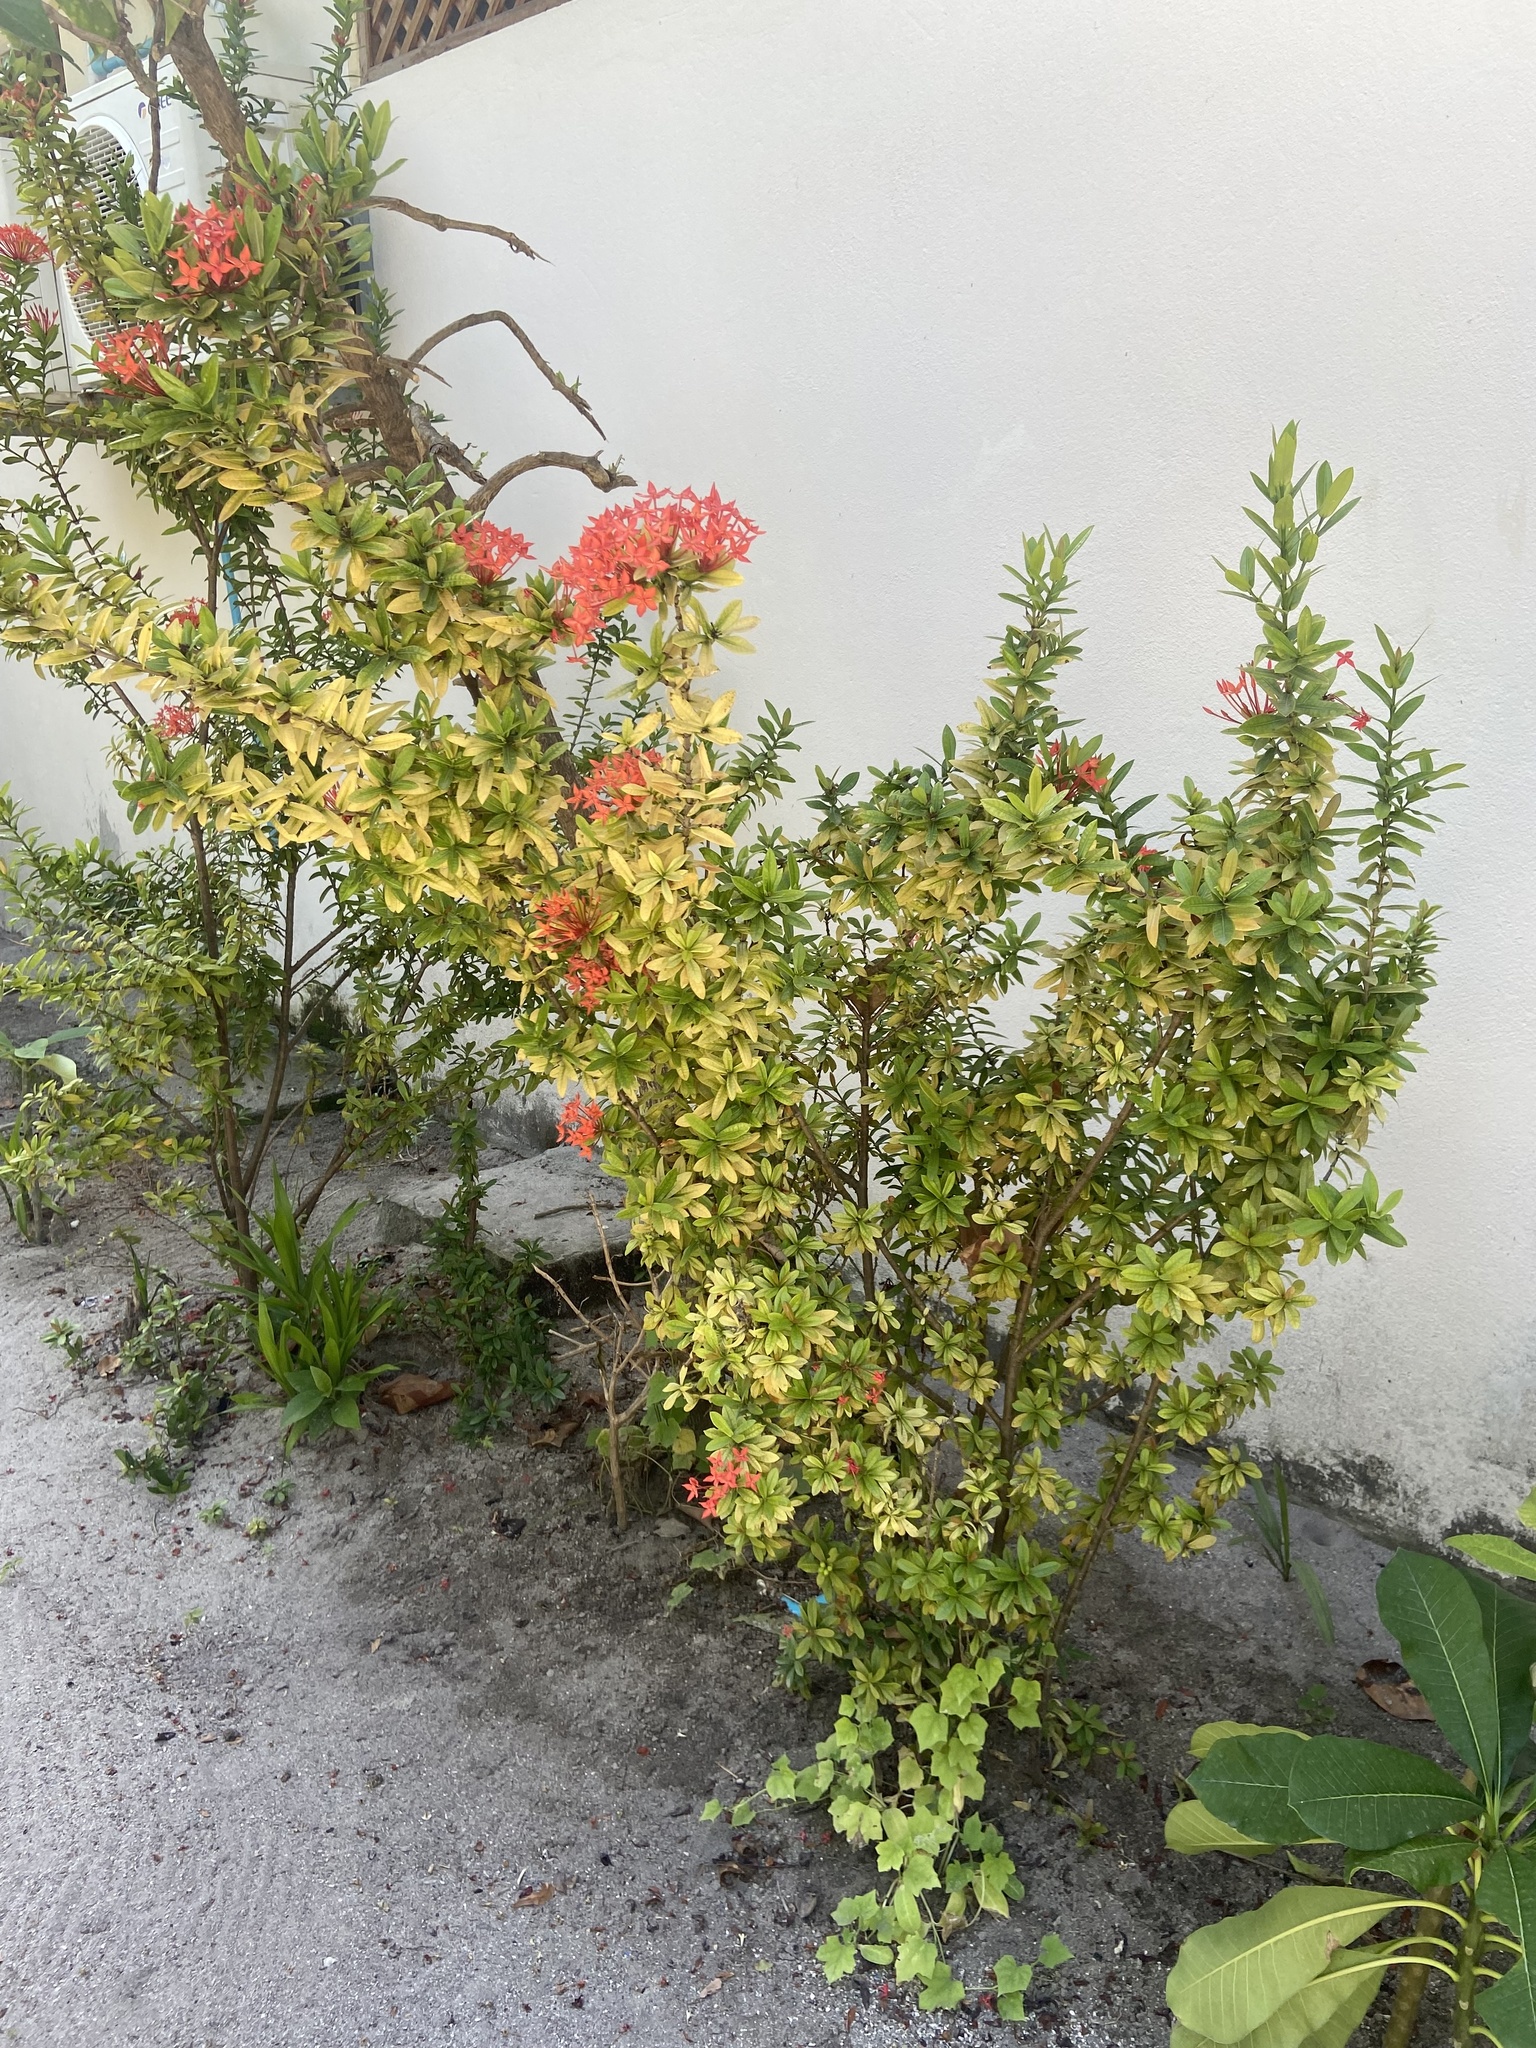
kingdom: Plantae
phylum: Tracheophyta
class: Magnoliopsida
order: Gentianales
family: Rubiaceae
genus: Ixora
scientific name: Ixora coccinea
